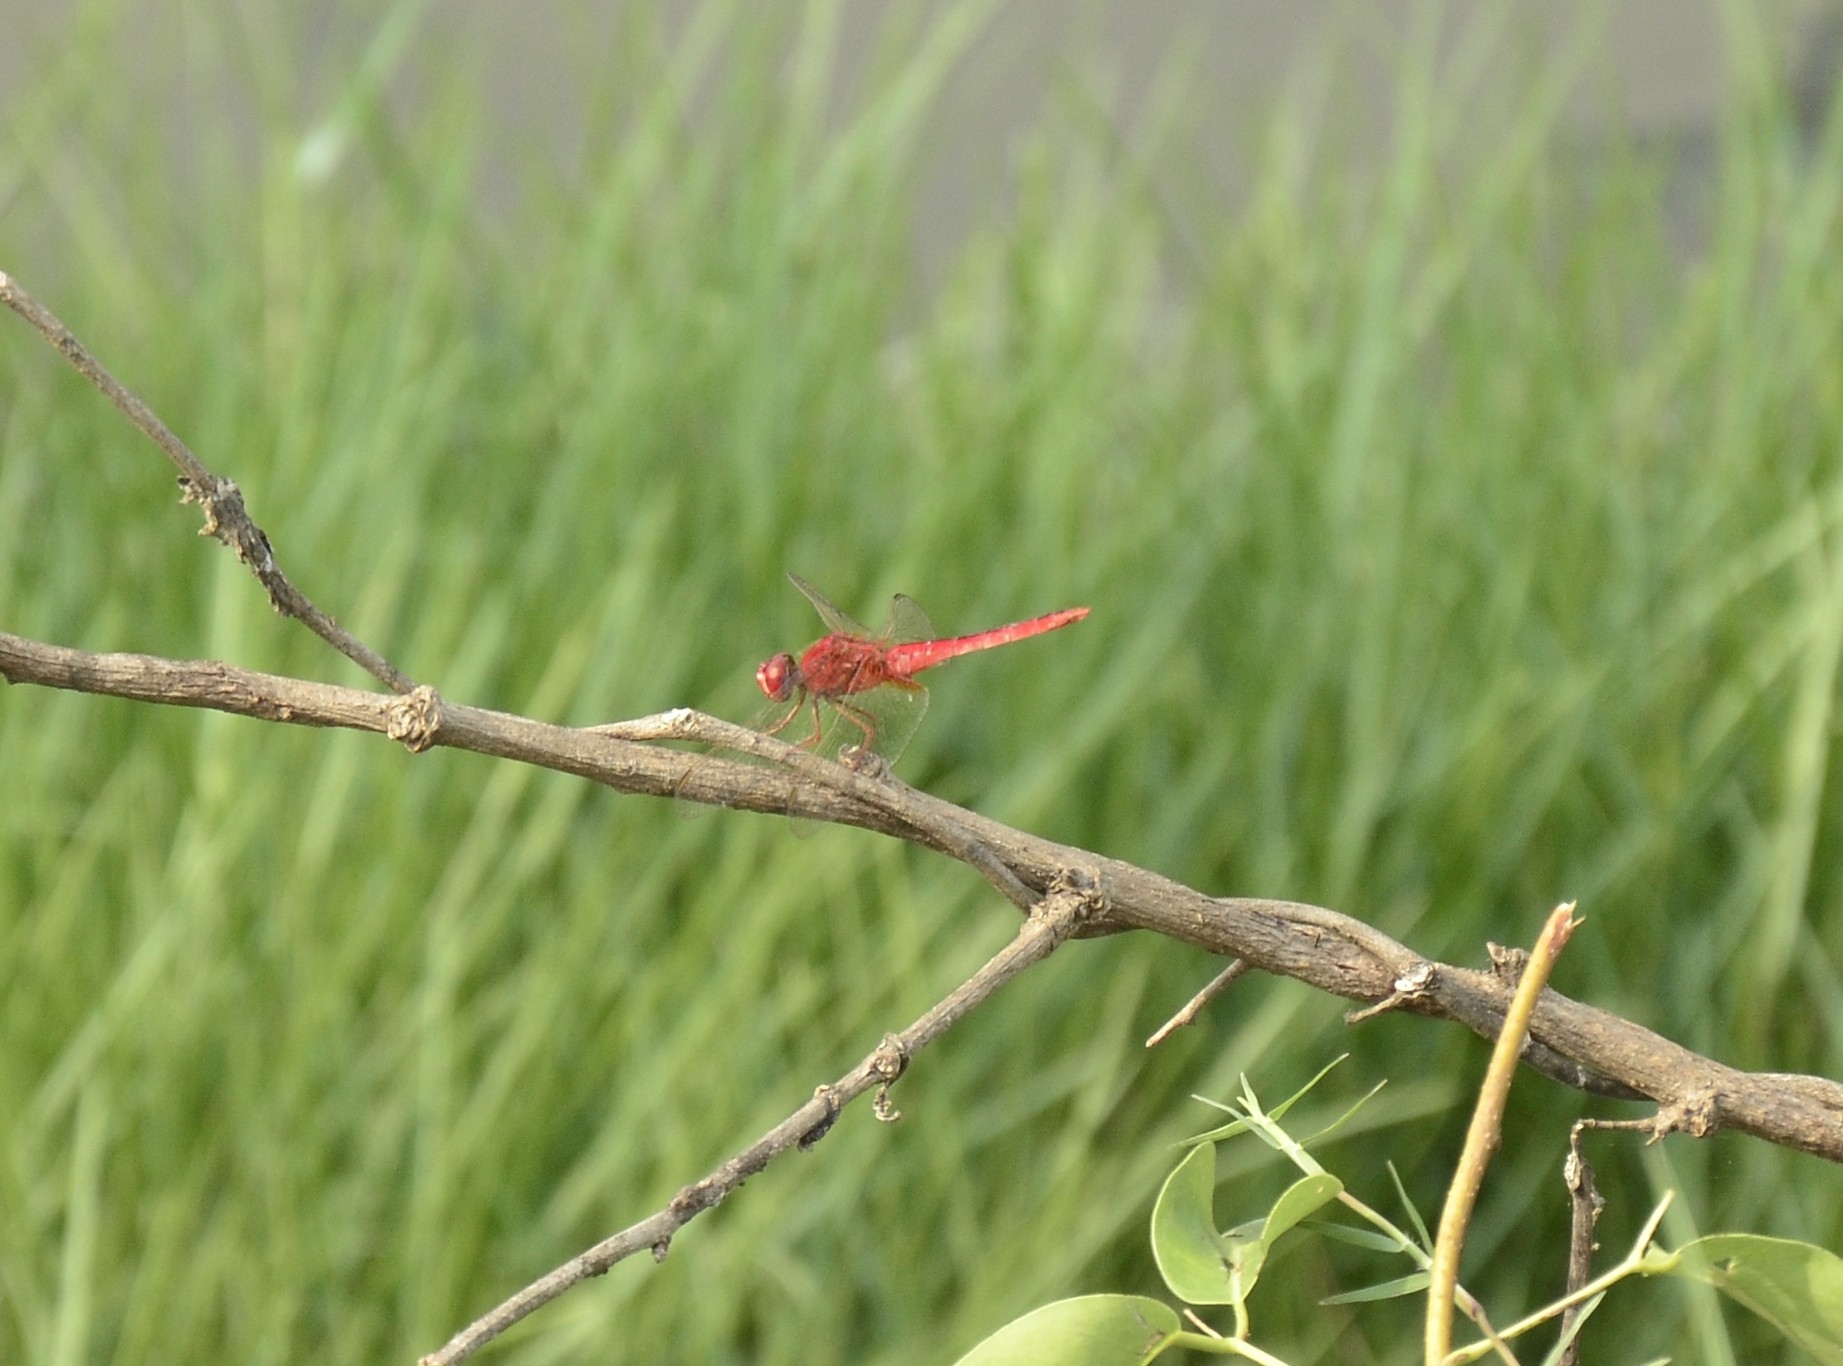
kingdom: Animalia
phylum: Arthropoda
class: Insecta
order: Odonata
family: Libellulidae
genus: Crocothemis
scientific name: Crocothemis servilia
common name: Scarlet skimmer
